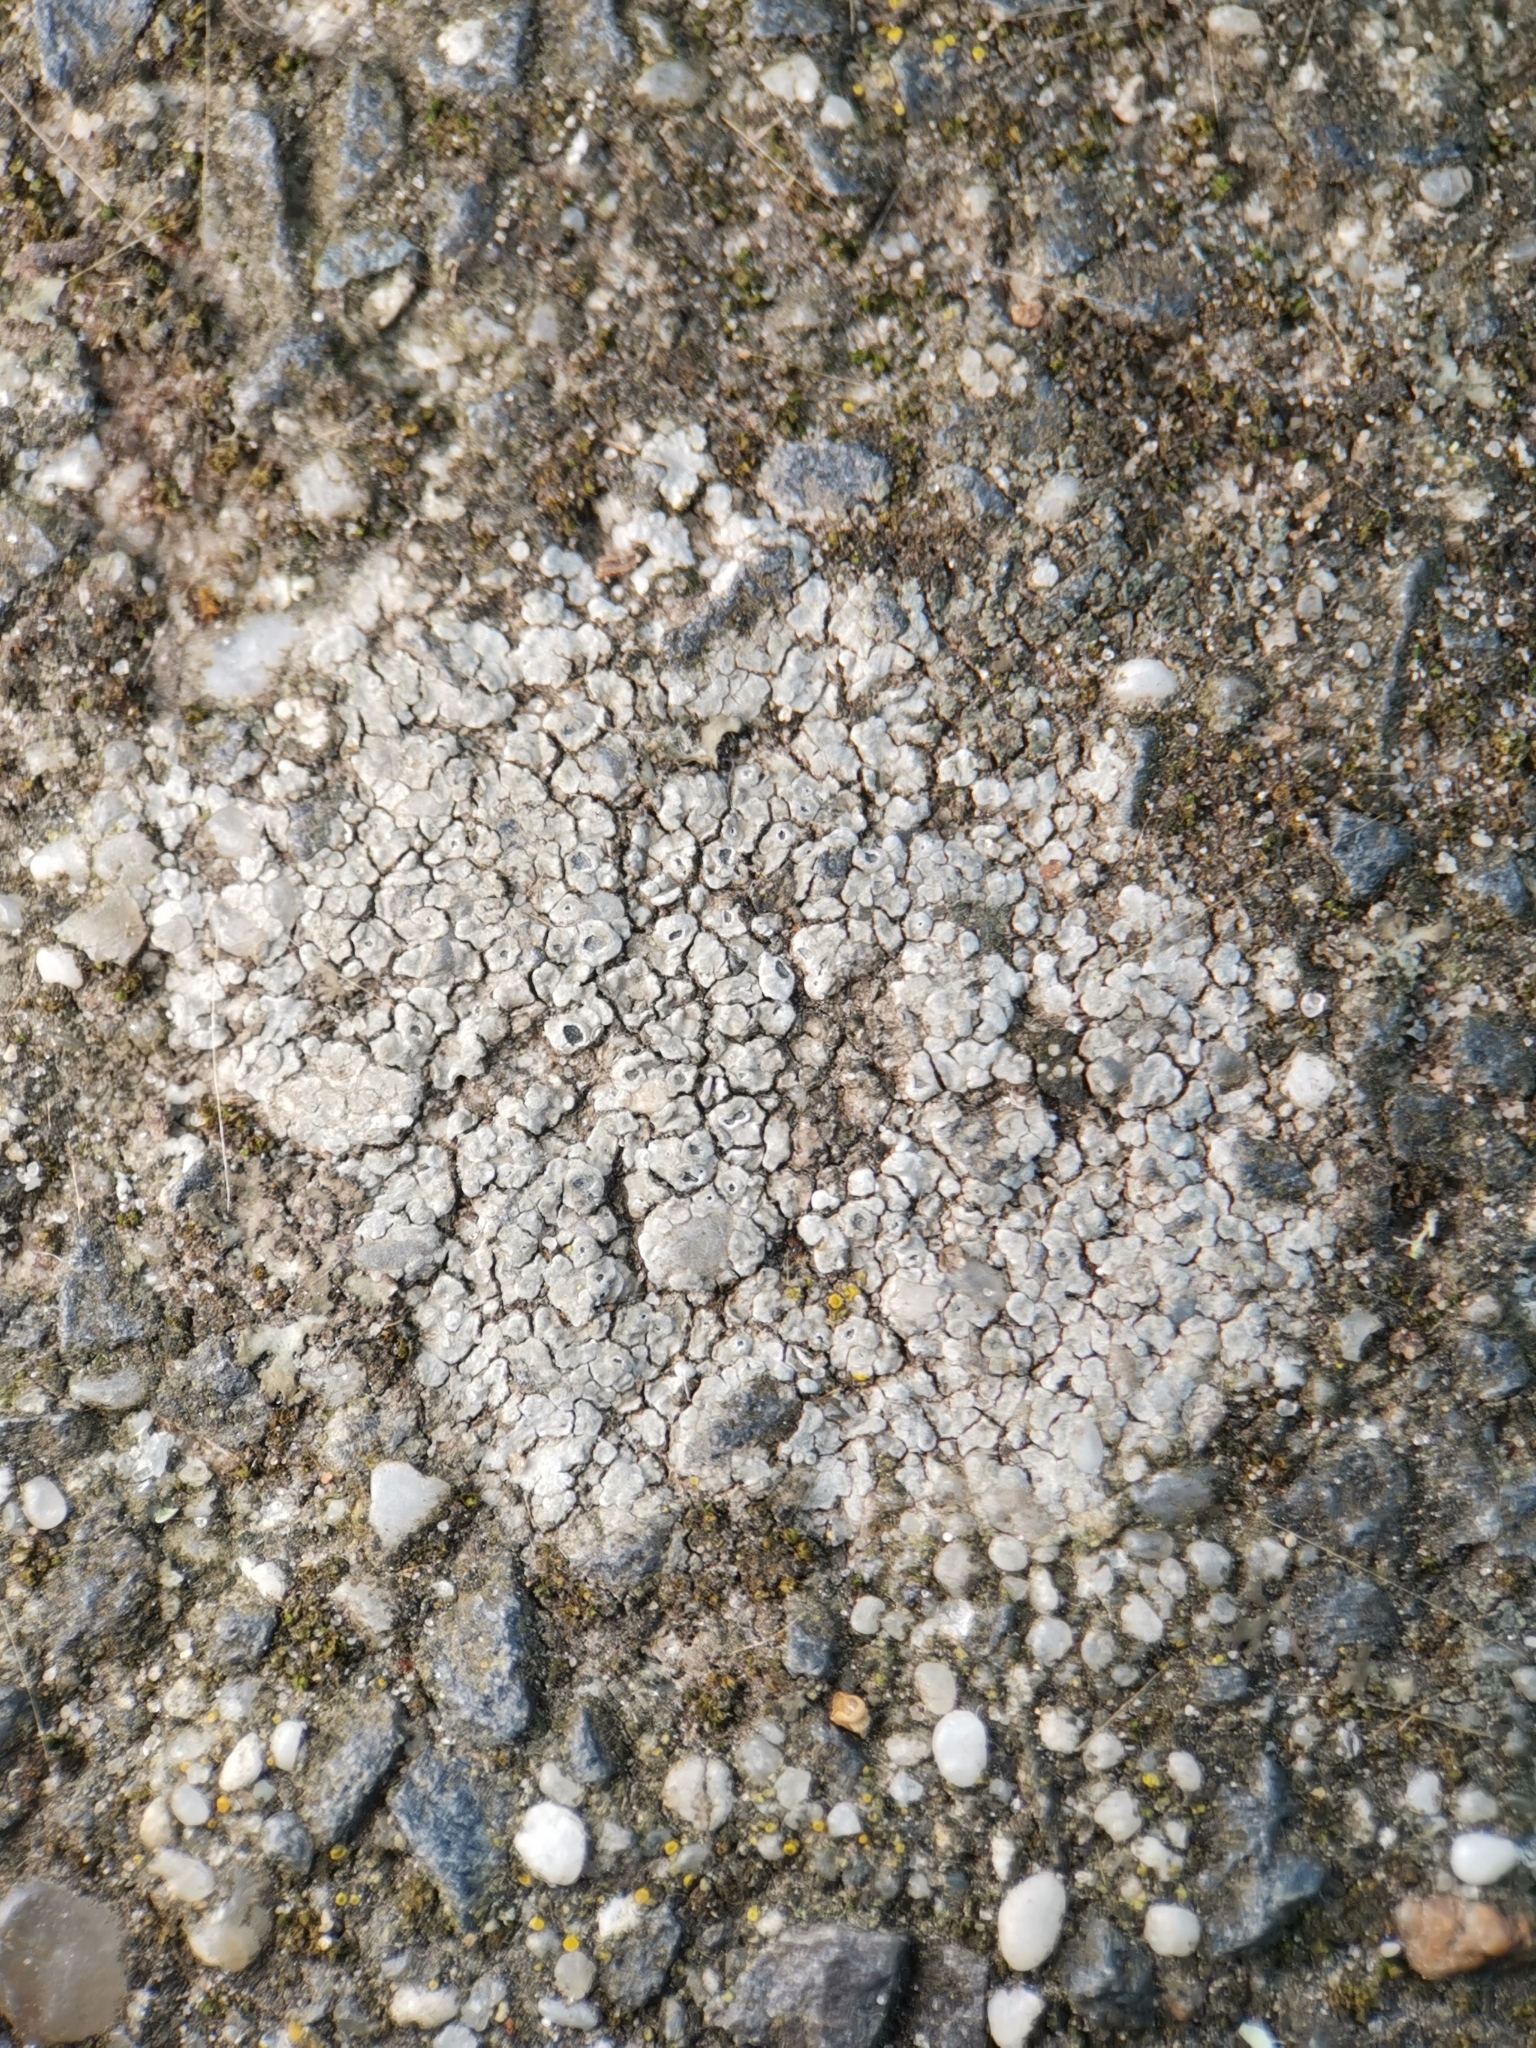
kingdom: Fungi
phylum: Ascomycota
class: Lecanoromycetes
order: Pertusariales
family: Megasporaceae
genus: Circinaria
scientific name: Circinaria contorta
